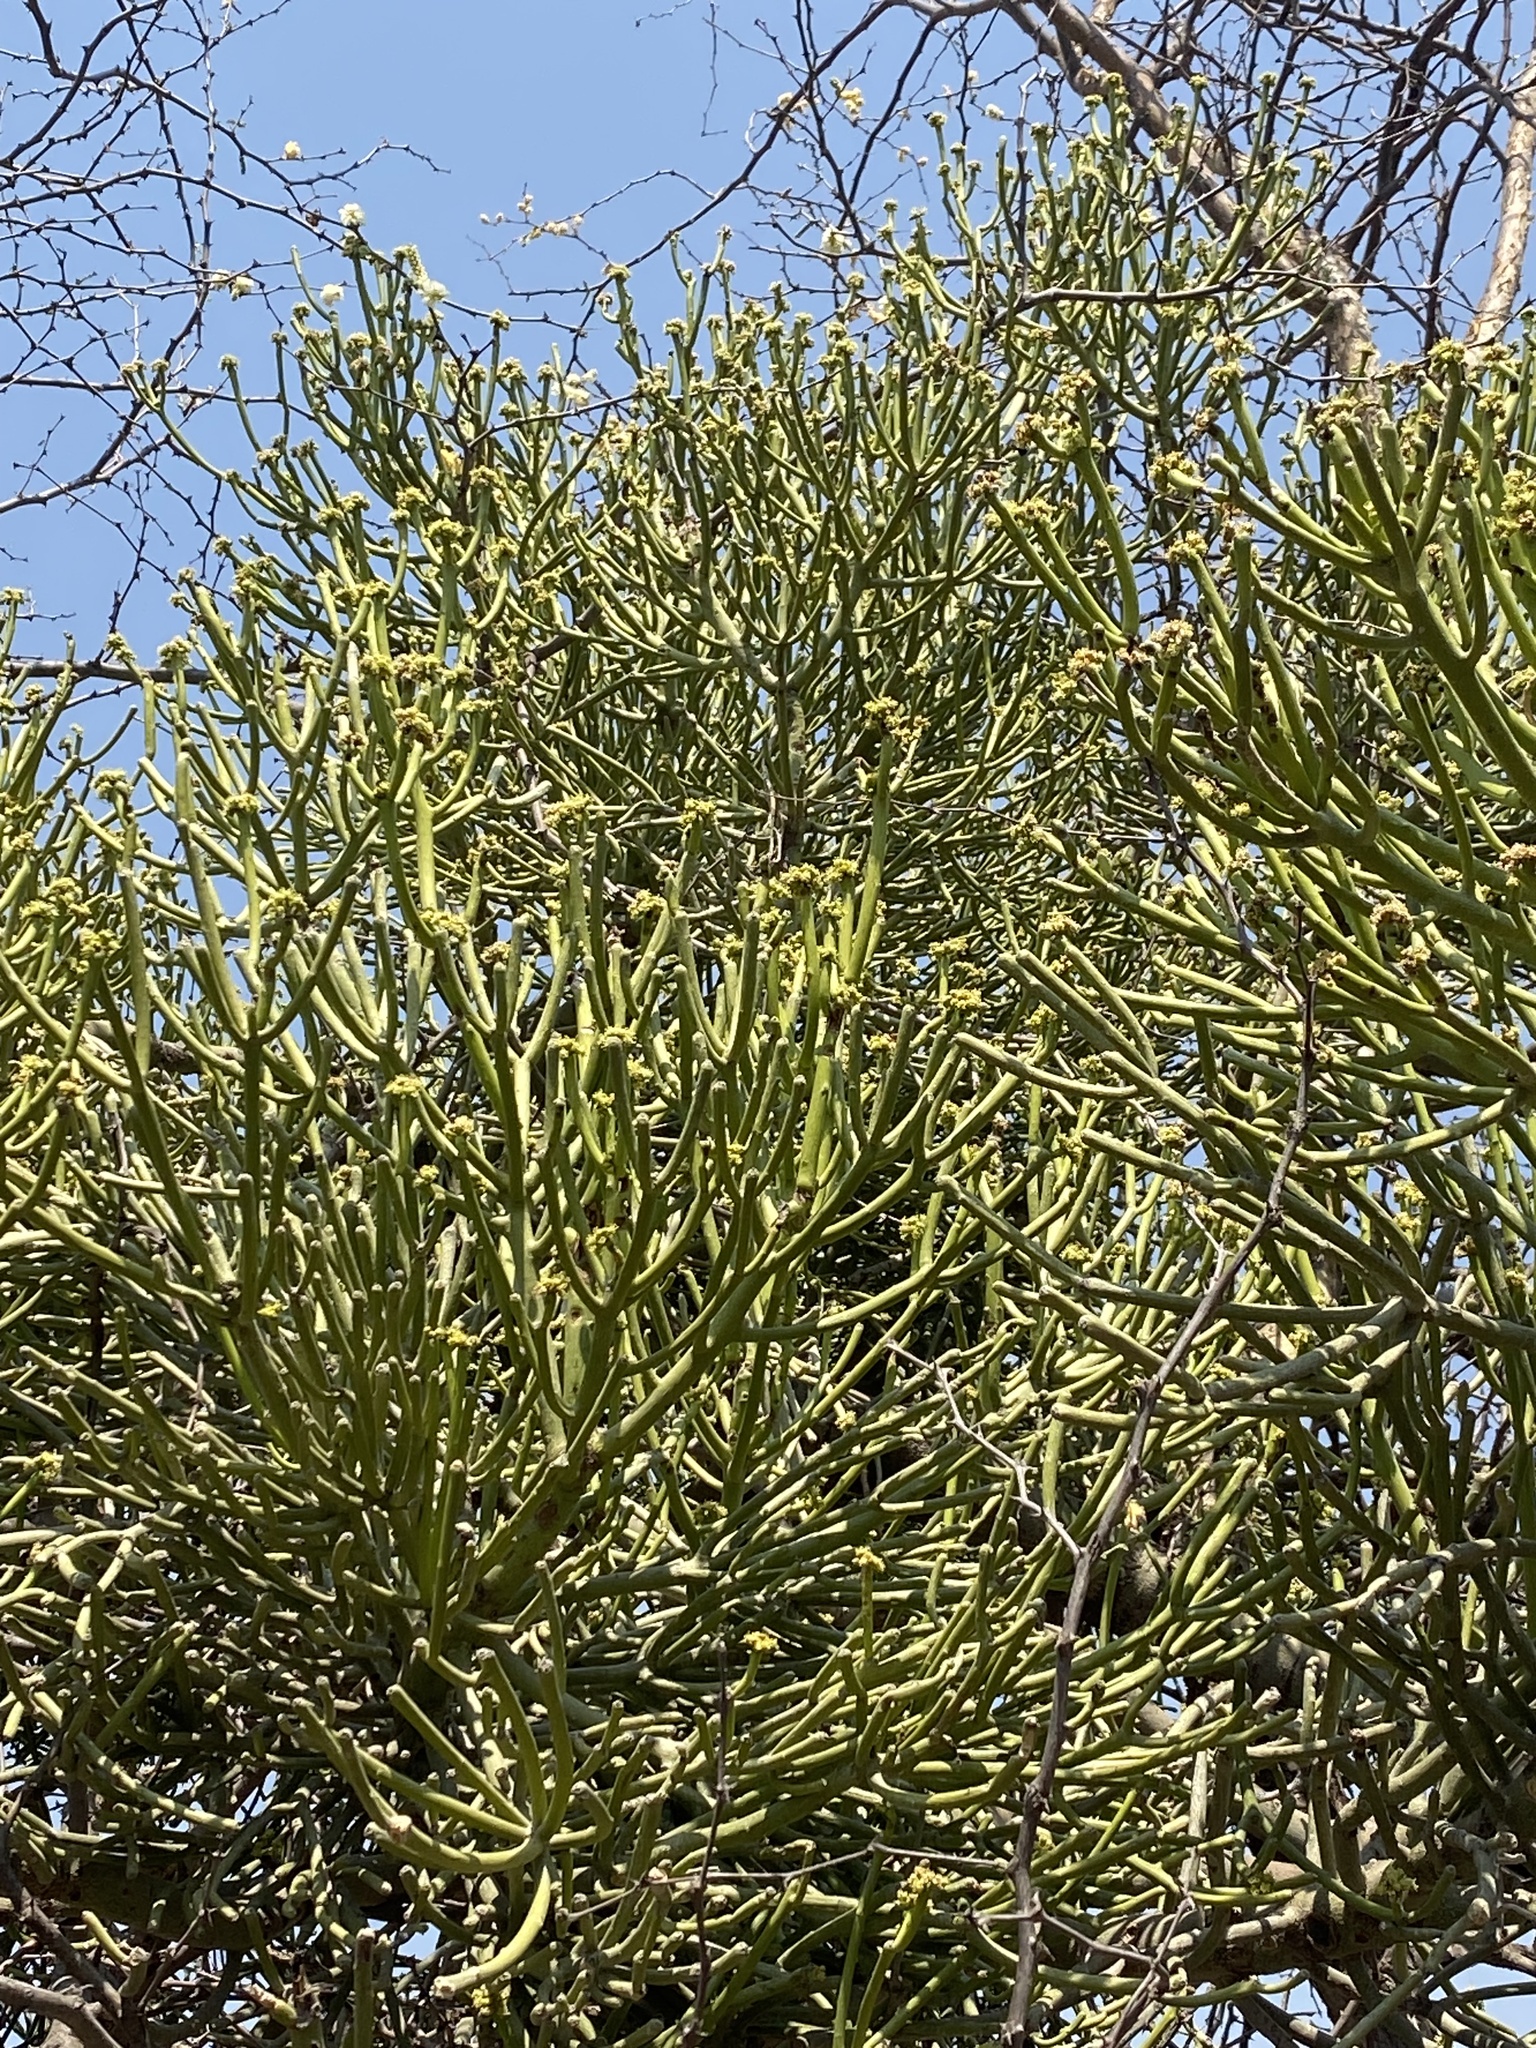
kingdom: Plantae
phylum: Tracheophyta
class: Magnoliopsida
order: Malpighiales
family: Euphorbiaceae
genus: Euphorbia
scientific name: Euphorbia tirucalli
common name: Indiantree spurge
